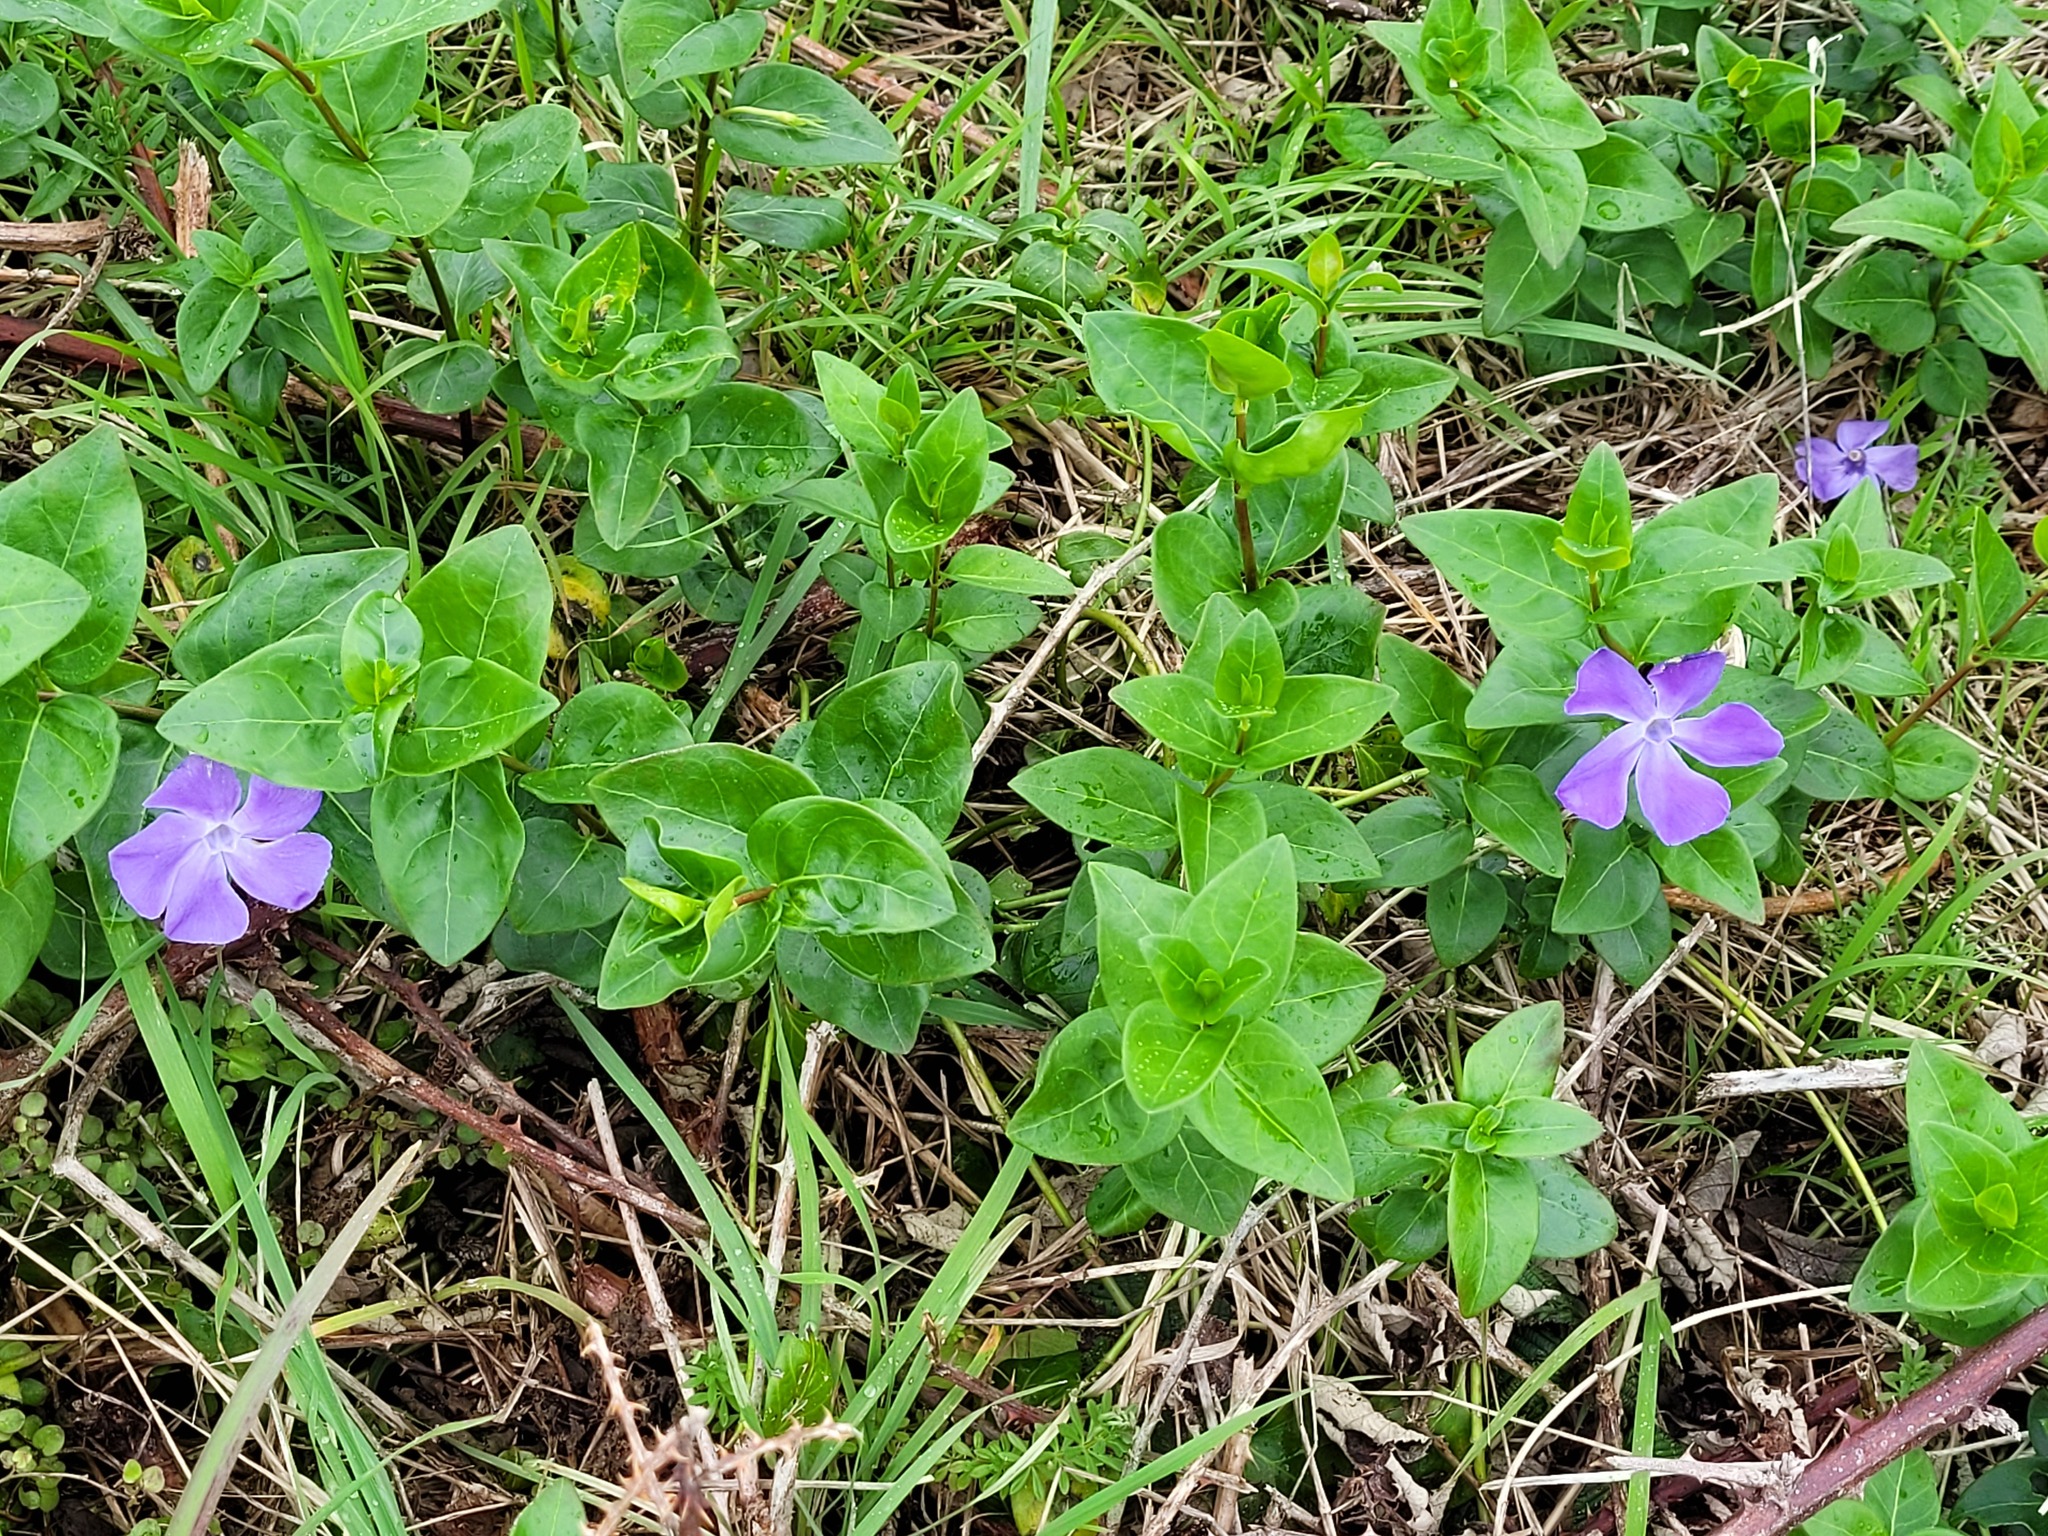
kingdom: Plantae
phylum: Tracheophyta
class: Magnoliopsida
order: Gentianales
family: Apocynaceae
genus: Vinca
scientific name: Vinca major
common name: Greater periwinkle
